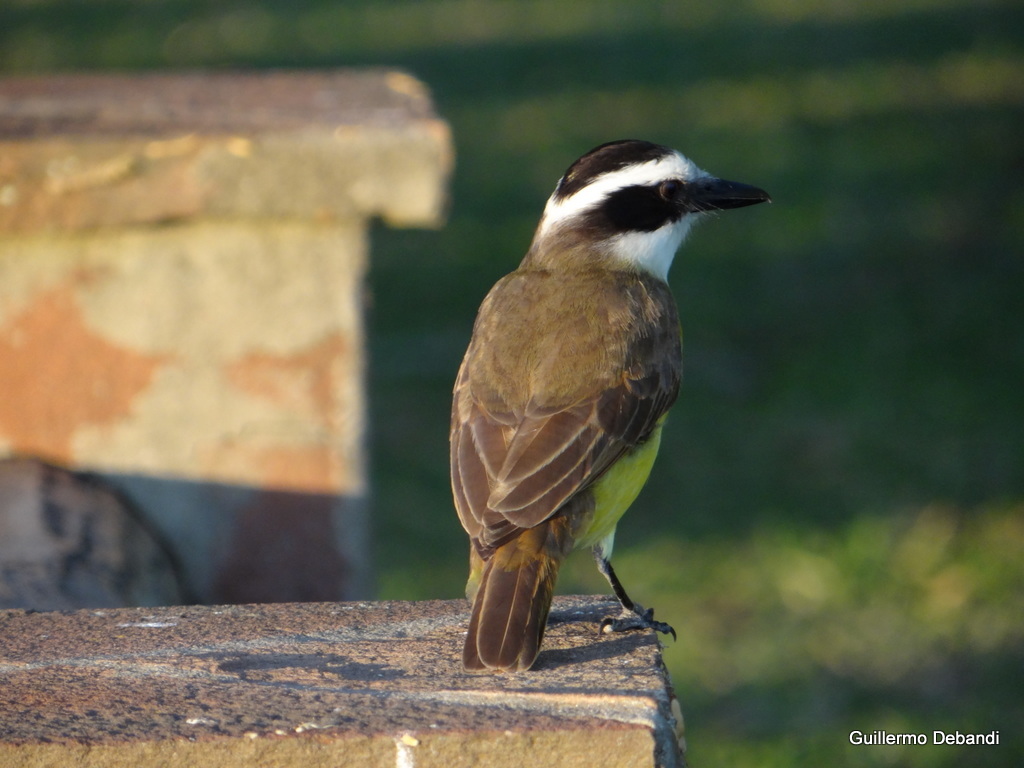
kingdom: Animalia
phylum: Chordata
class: Aves
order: Passeriformes
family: Tyrannidae
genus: Pitangus
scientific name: Pitangus sulphuratus
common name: Great kiskadee
